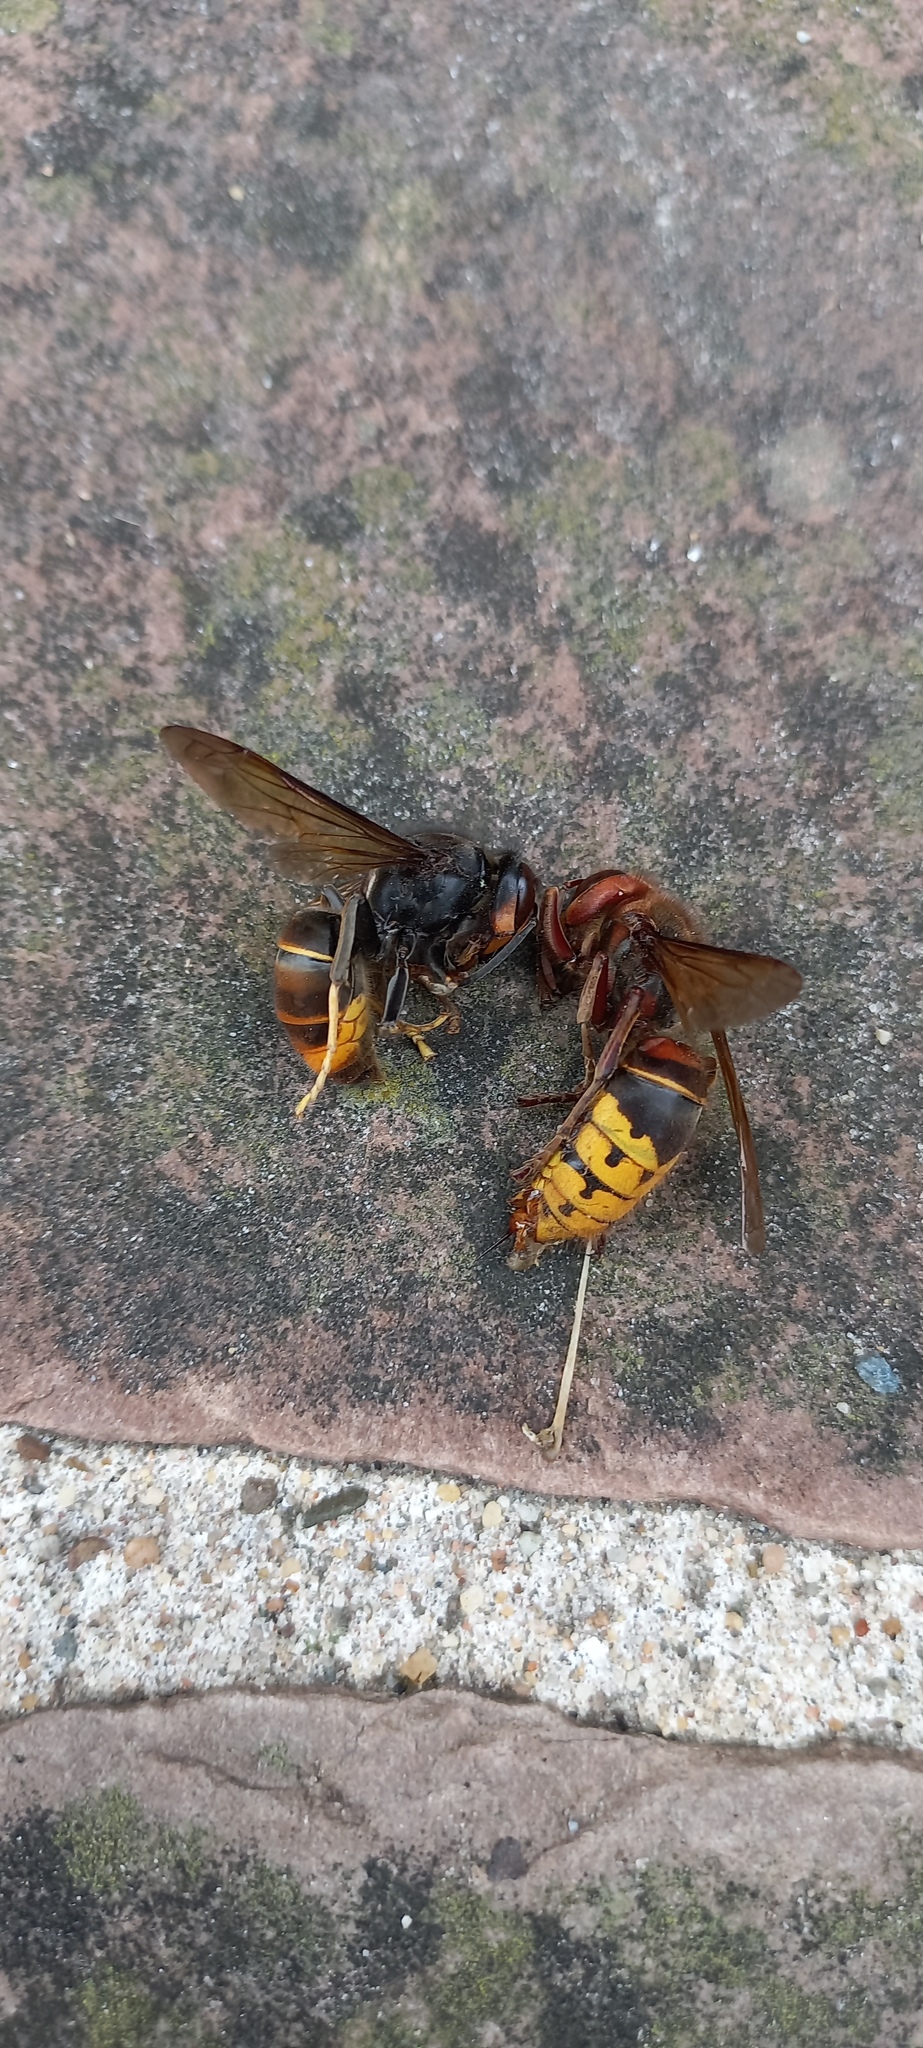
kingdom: Animalia
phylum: Arthropoda
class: Insecta
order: Hymenoptera
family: Vespidae
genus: Vespa
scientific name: Vespa velutina
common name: Asian hornet
